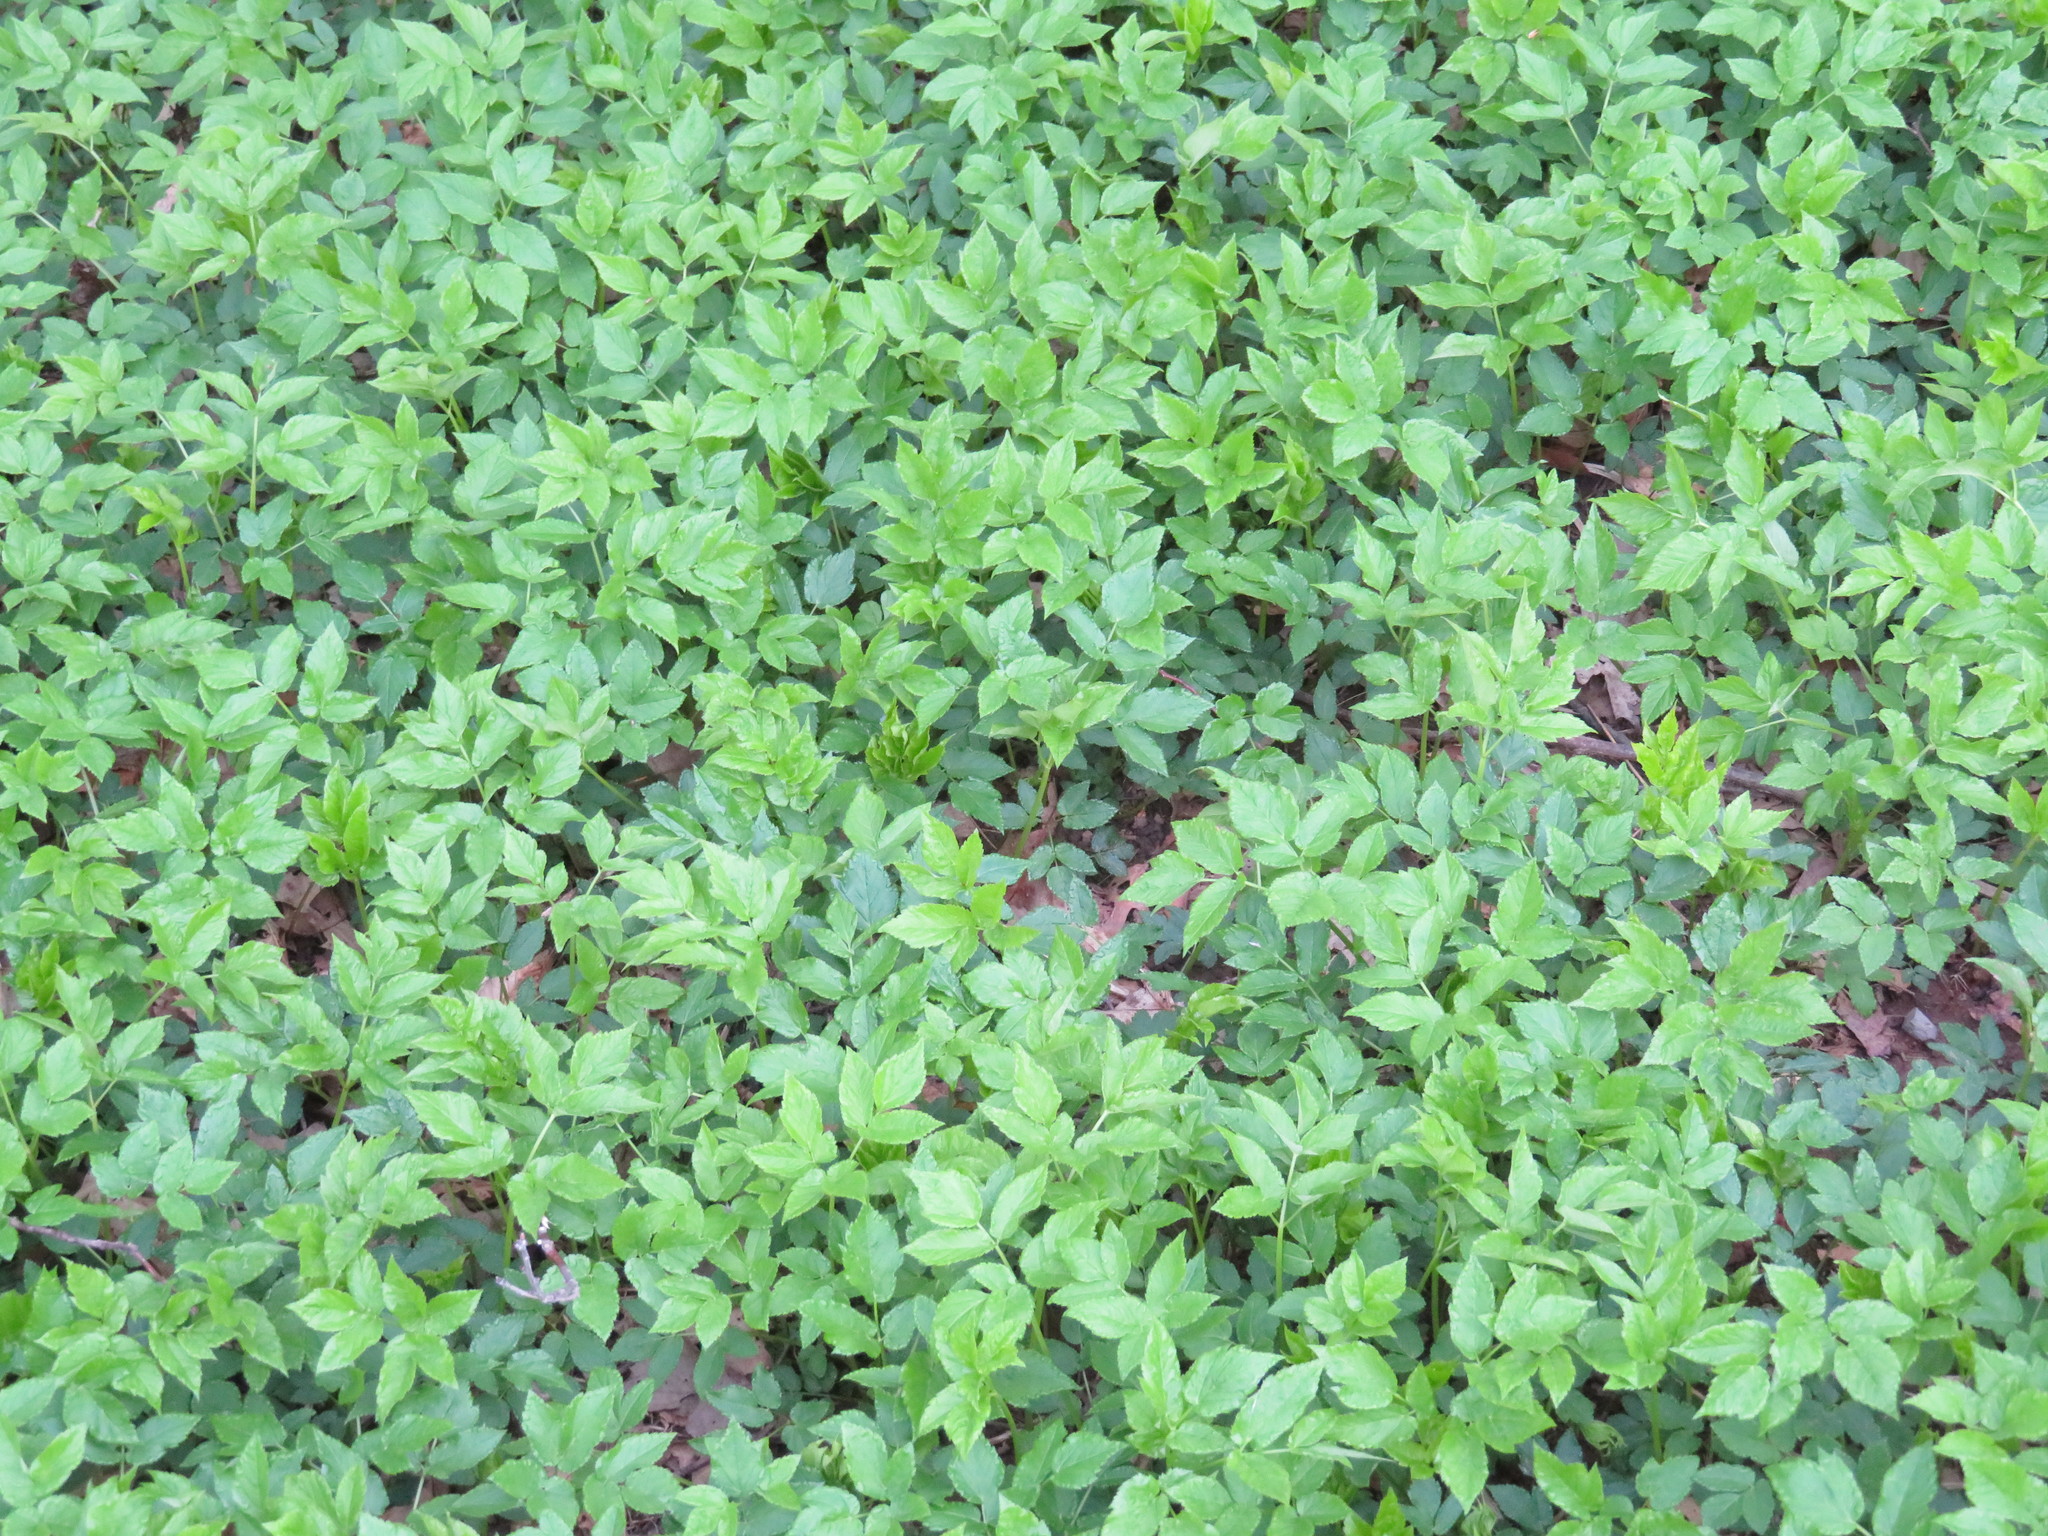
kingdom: Plantae
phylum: Tracheophyta
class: Magnoliopsida
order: Apiales
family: Apiaceae
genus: Aegopodium
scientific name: Aegopodium podagraria
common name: Ground-elder
